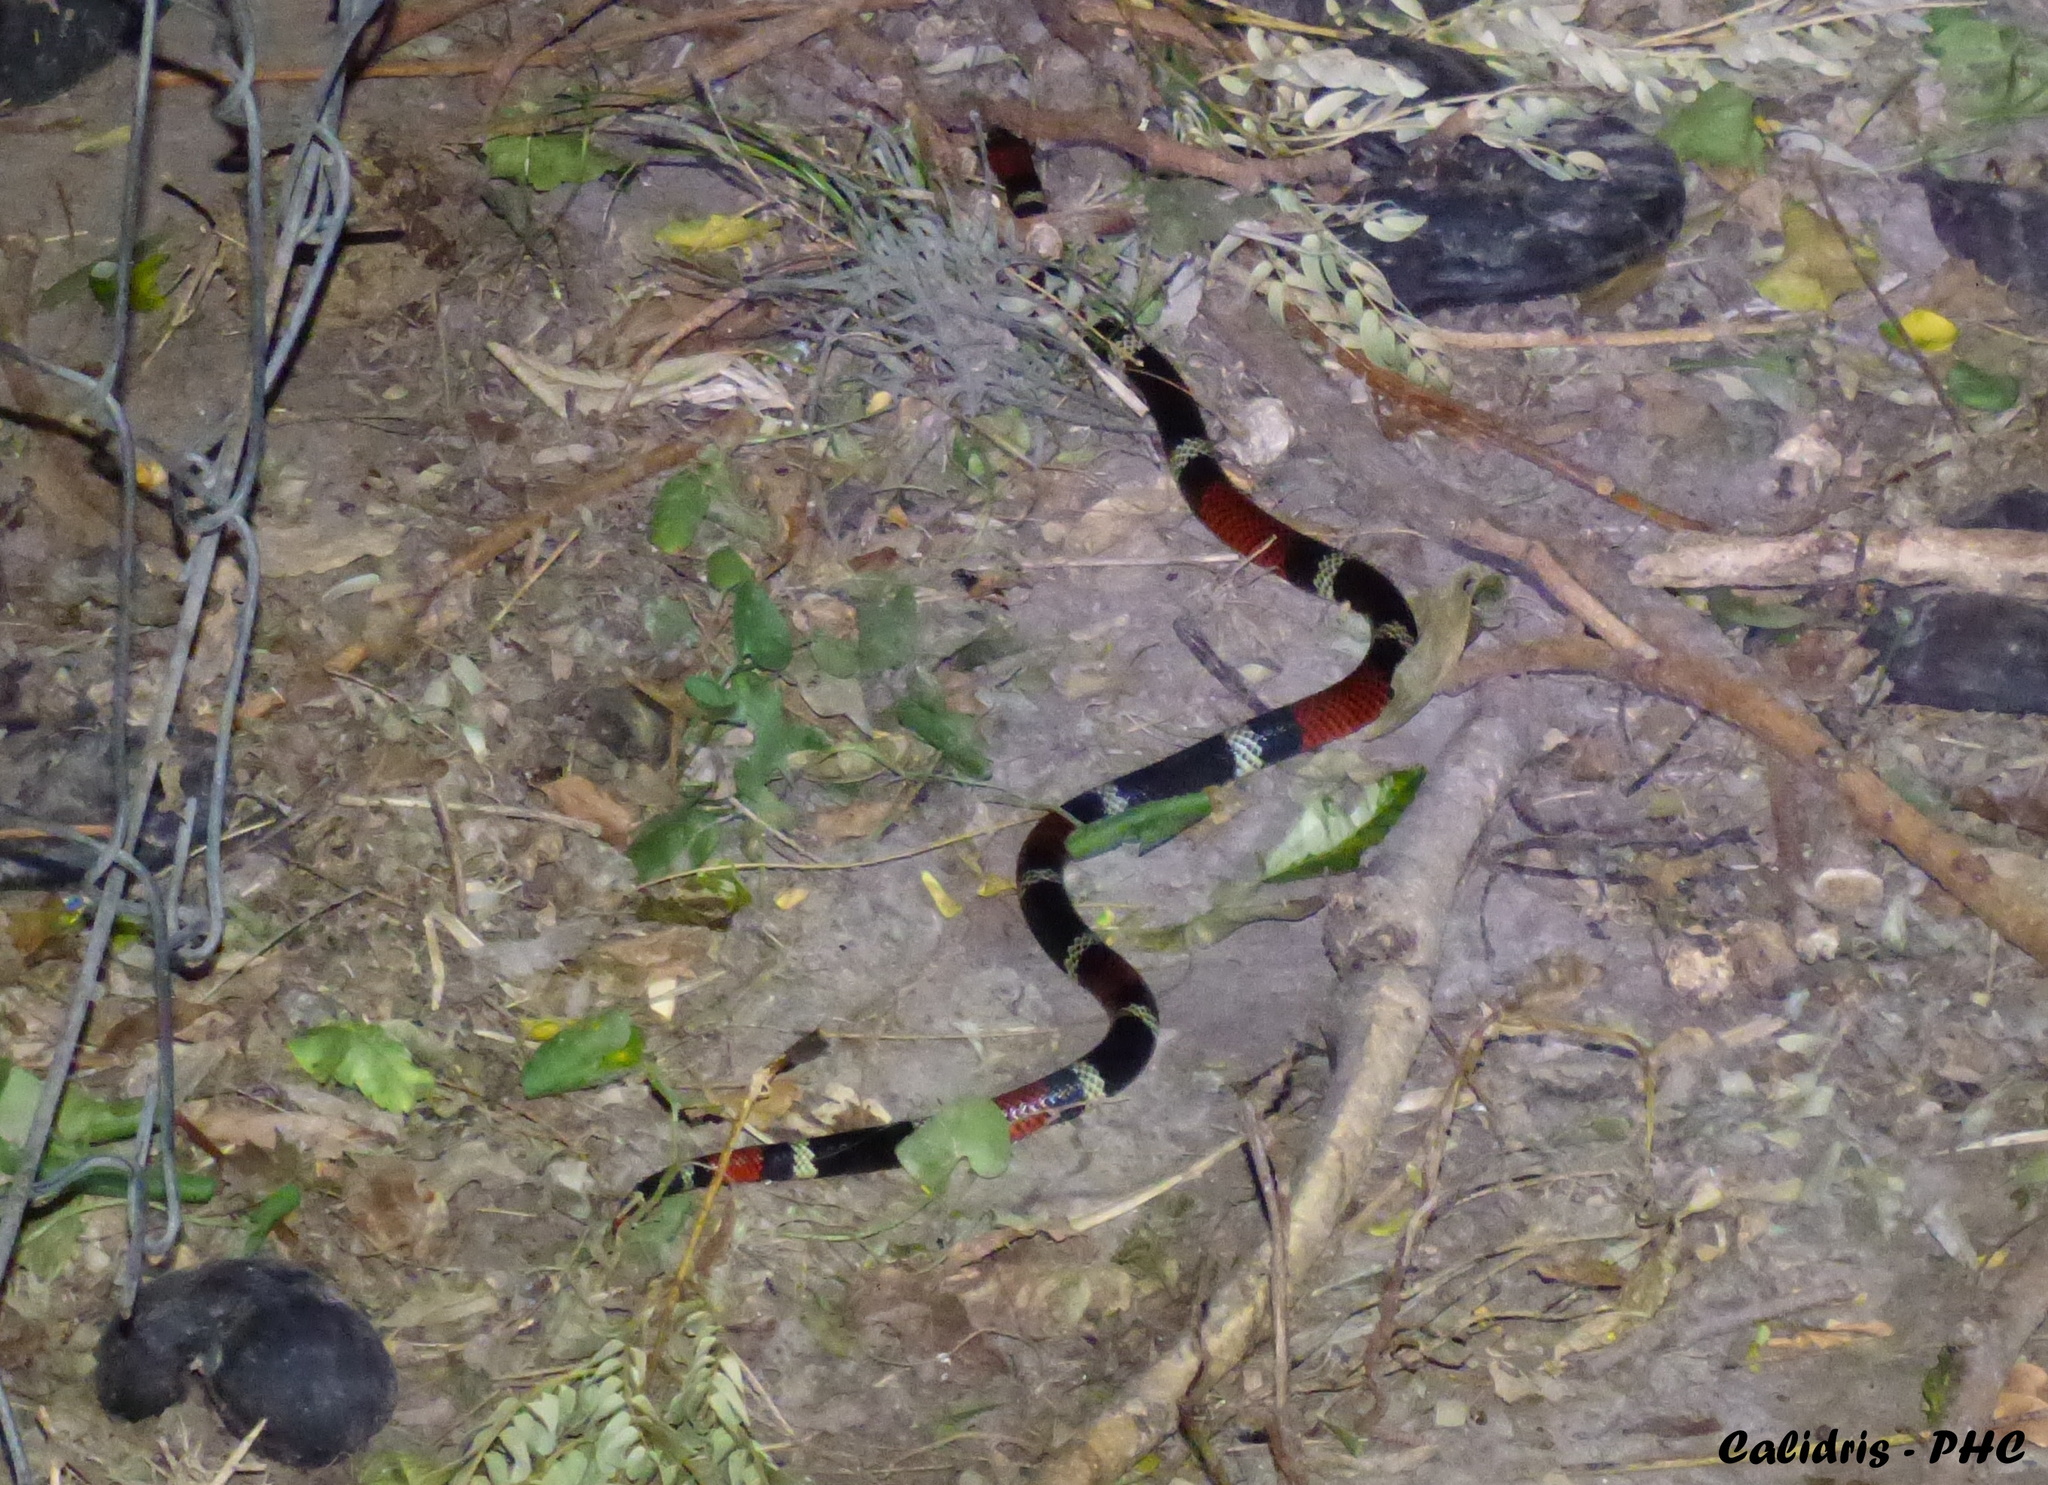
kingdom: Animalia
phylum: Chordata
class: Squamata
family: Elapidae
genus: Micrurus
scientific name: Micrurus pyrrhocryptus
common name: Argentinian coral snake
